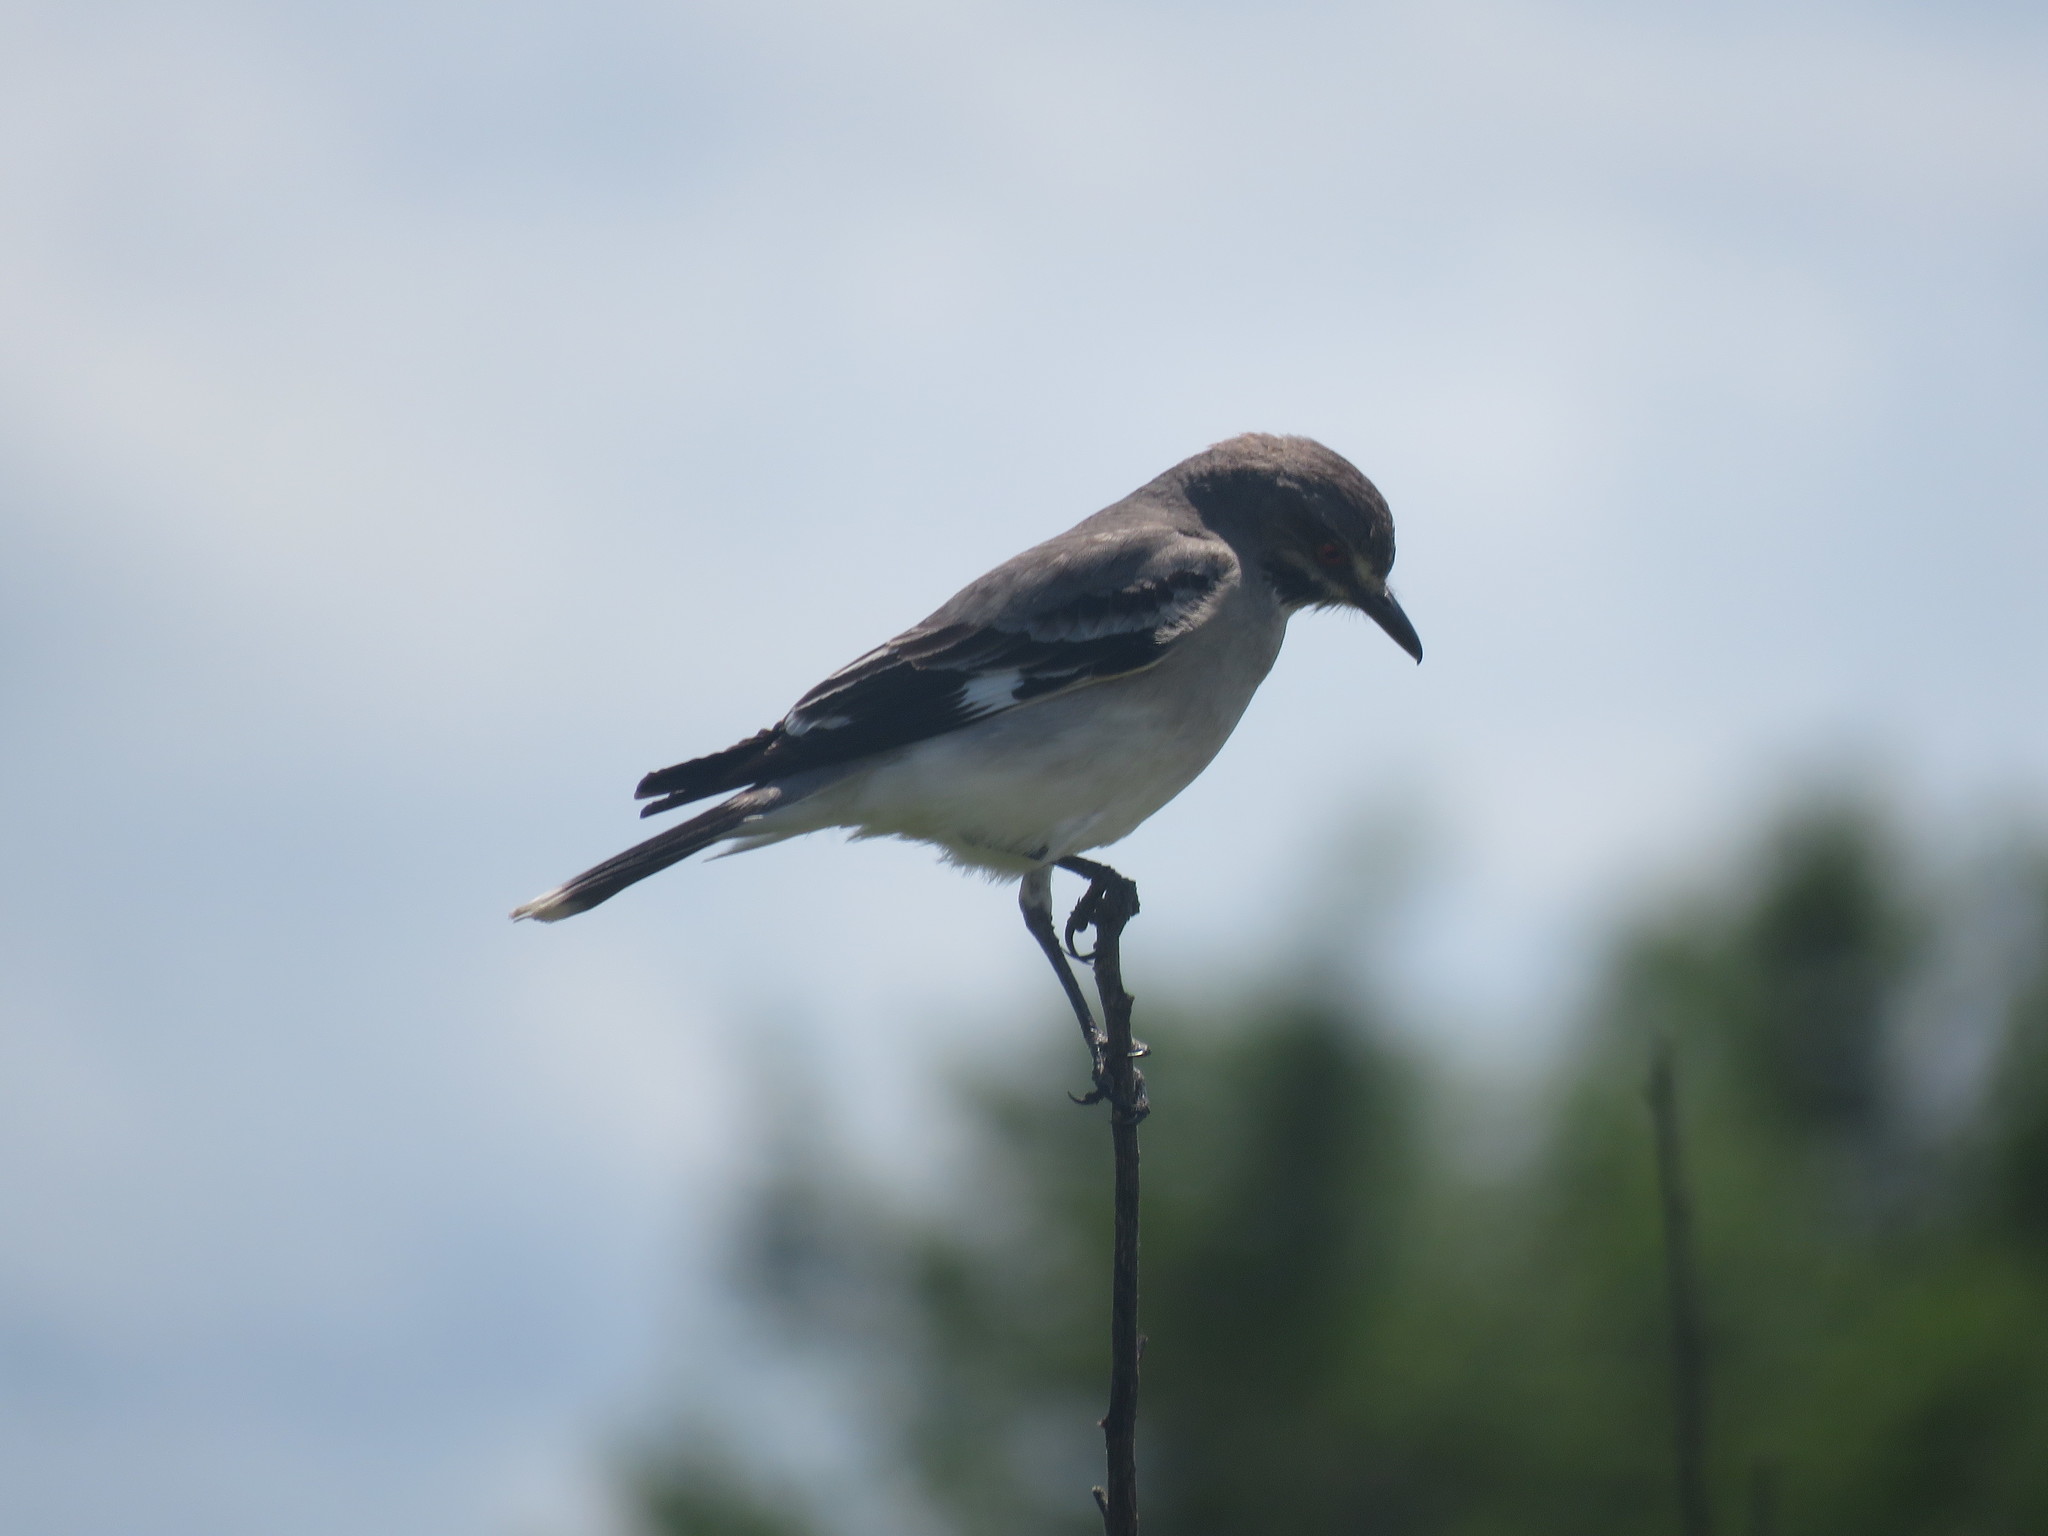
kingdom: Animalia
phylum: Chordata
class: Aves
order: Passeriformes
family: Tyrannidae
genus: Xolmis
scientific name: Xolmis cinereus
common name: Grey monjita
